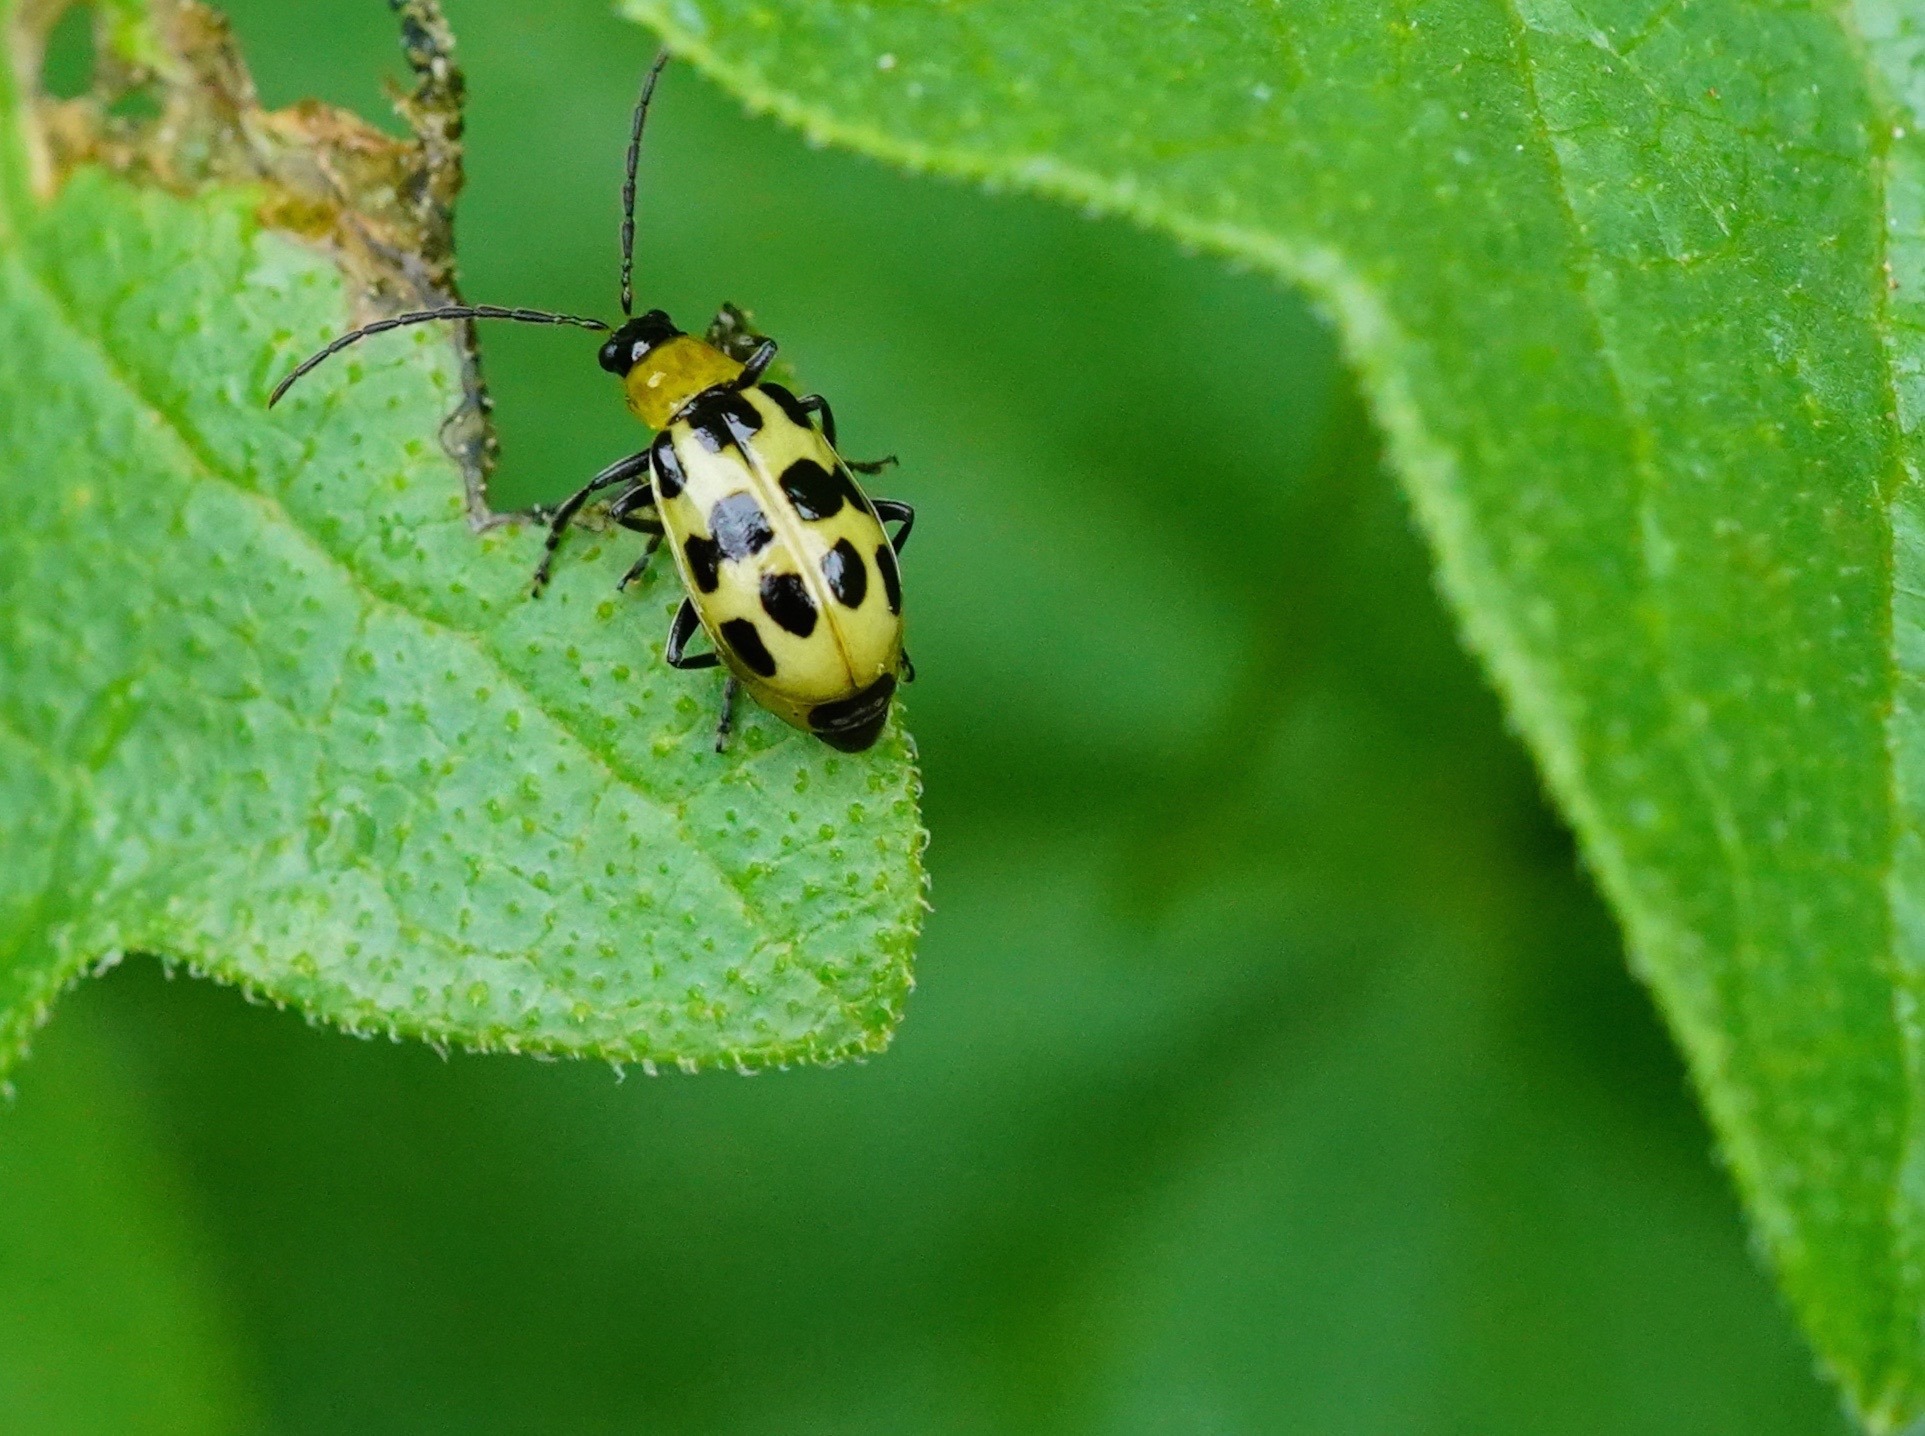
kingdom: Animalia
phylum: Arthropoda
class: Insecta
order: Coleoptera
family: Chrysomelidae
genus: Diabrotica
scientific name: Diabrotica undecimpunctata
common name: Spotted cucumber beetle
